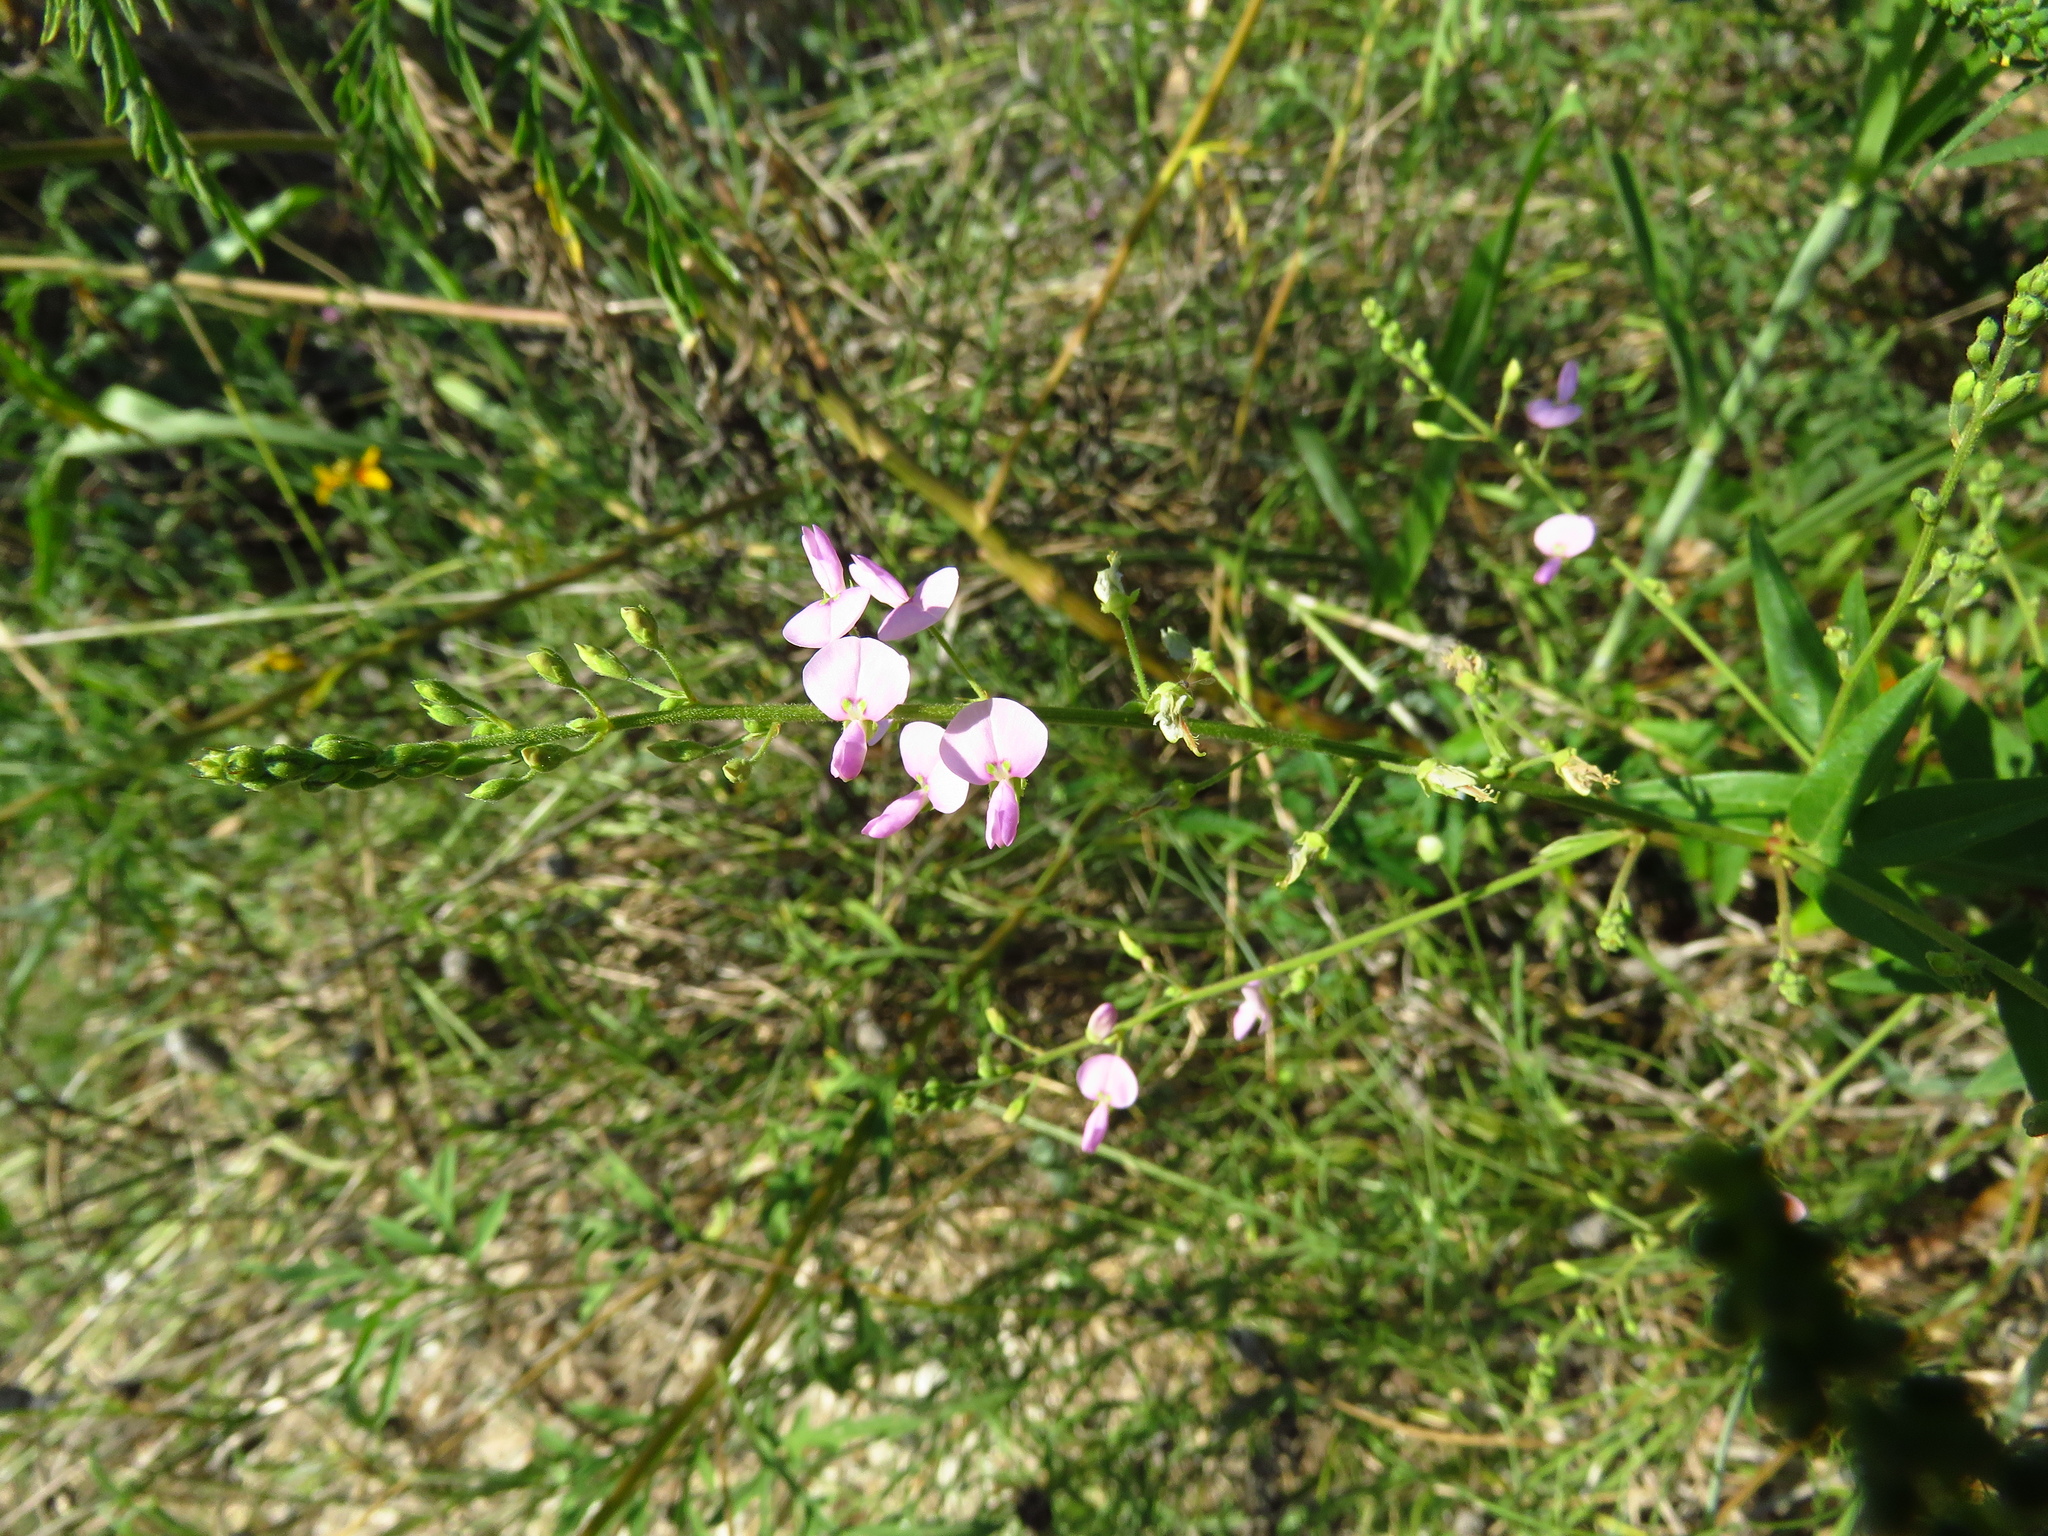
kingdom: Plantae
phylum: Tracheophyta
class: Magnoliopsida
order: Fabales
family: Fabaceae
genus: Desmodium
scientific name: Desmodium paniculatum
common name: Panicled tick-clover
